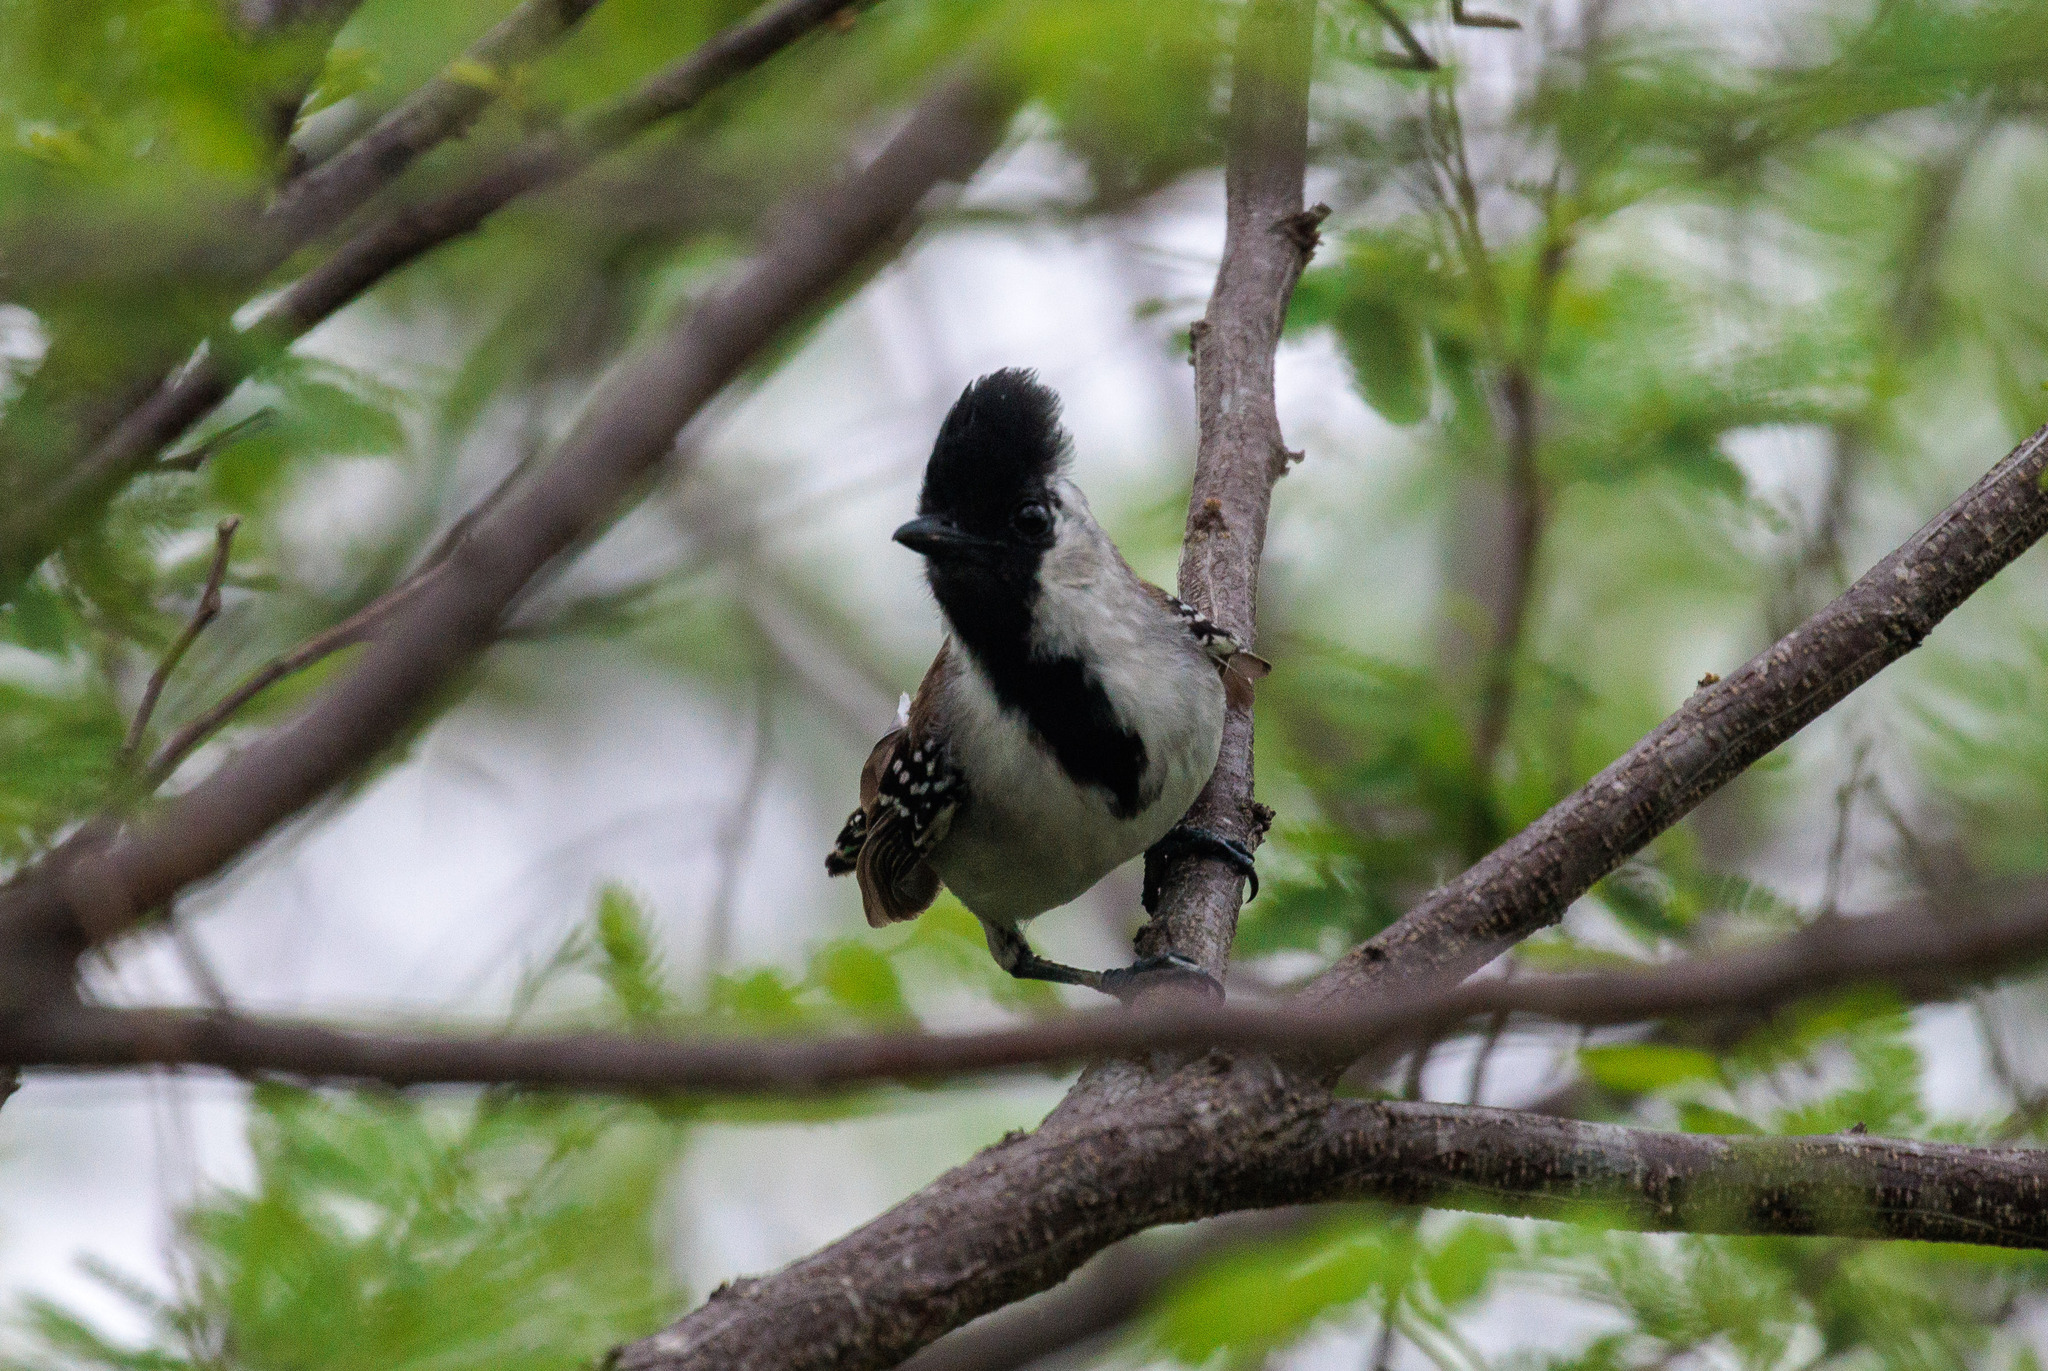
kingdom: Animalia
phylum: Chordata
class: Aves
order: Passeriformes
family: Thamnophilidae
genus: Sakesphorus
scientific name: Sakesphorus cristatus
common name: Silvery-cheeked antshrike
